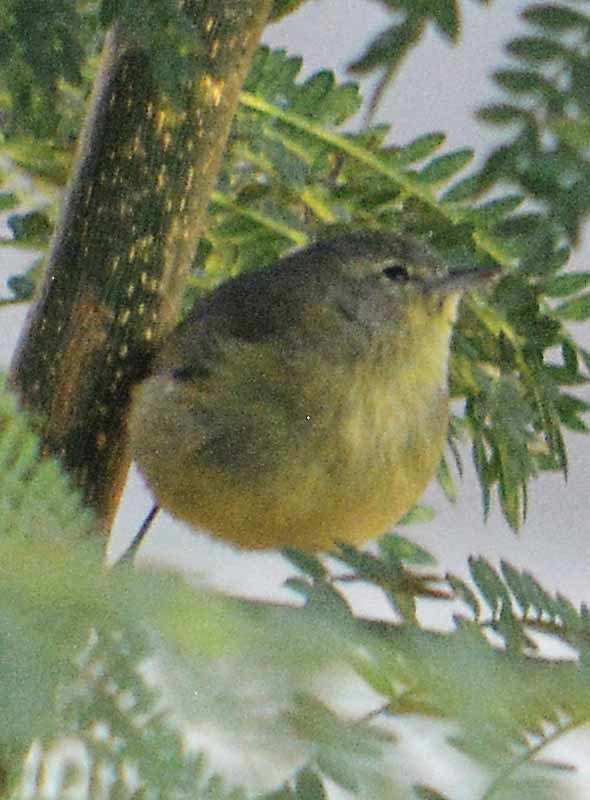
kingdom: Animalia
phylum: Chordata
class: Aves
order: Passeriformes
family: Parulidae
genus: Leiothlypis
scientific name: Leiothlypis celata
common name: Orange-crowned warbler
